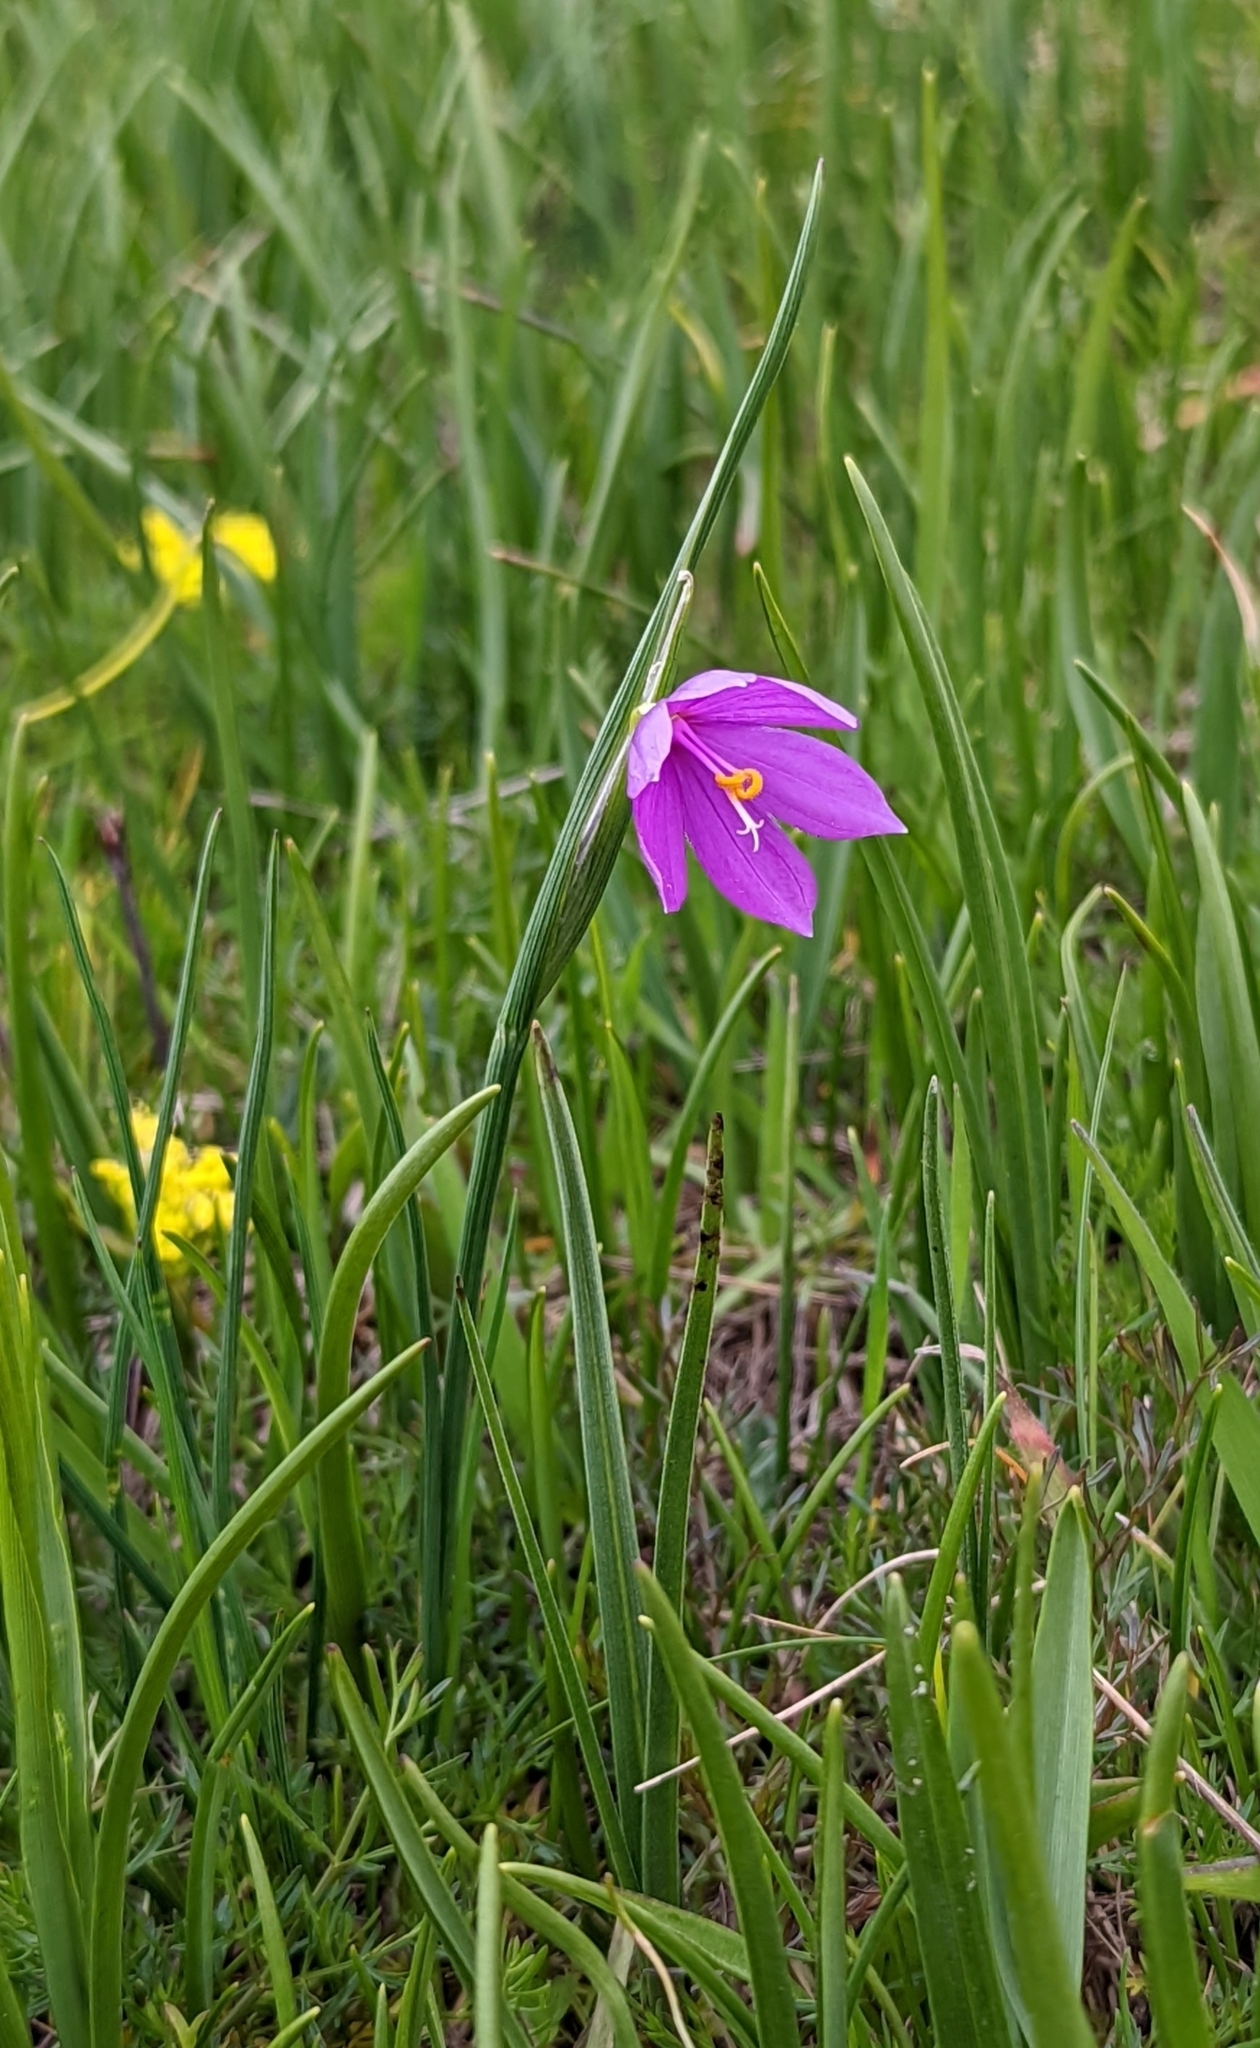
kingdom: Plantae
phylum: Tracheophyta
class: Liliopsida
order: Asparagales
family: Iridaceae
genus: Olsynium
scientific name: Olsynium douglasii
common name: Douglas' grasswidow
